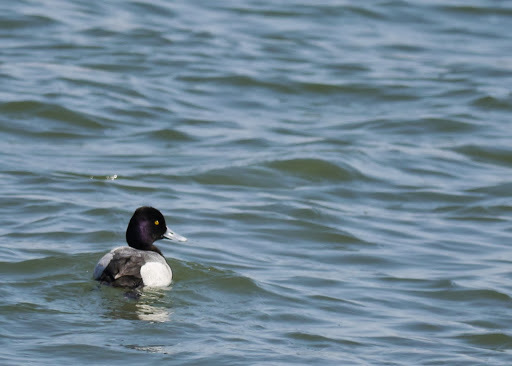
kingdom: Animalia
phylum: Chordata
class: Aves
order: Anseriformes
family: Anatidae
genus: Aythya
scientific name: Aythya affinis
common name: Lesser scaup
